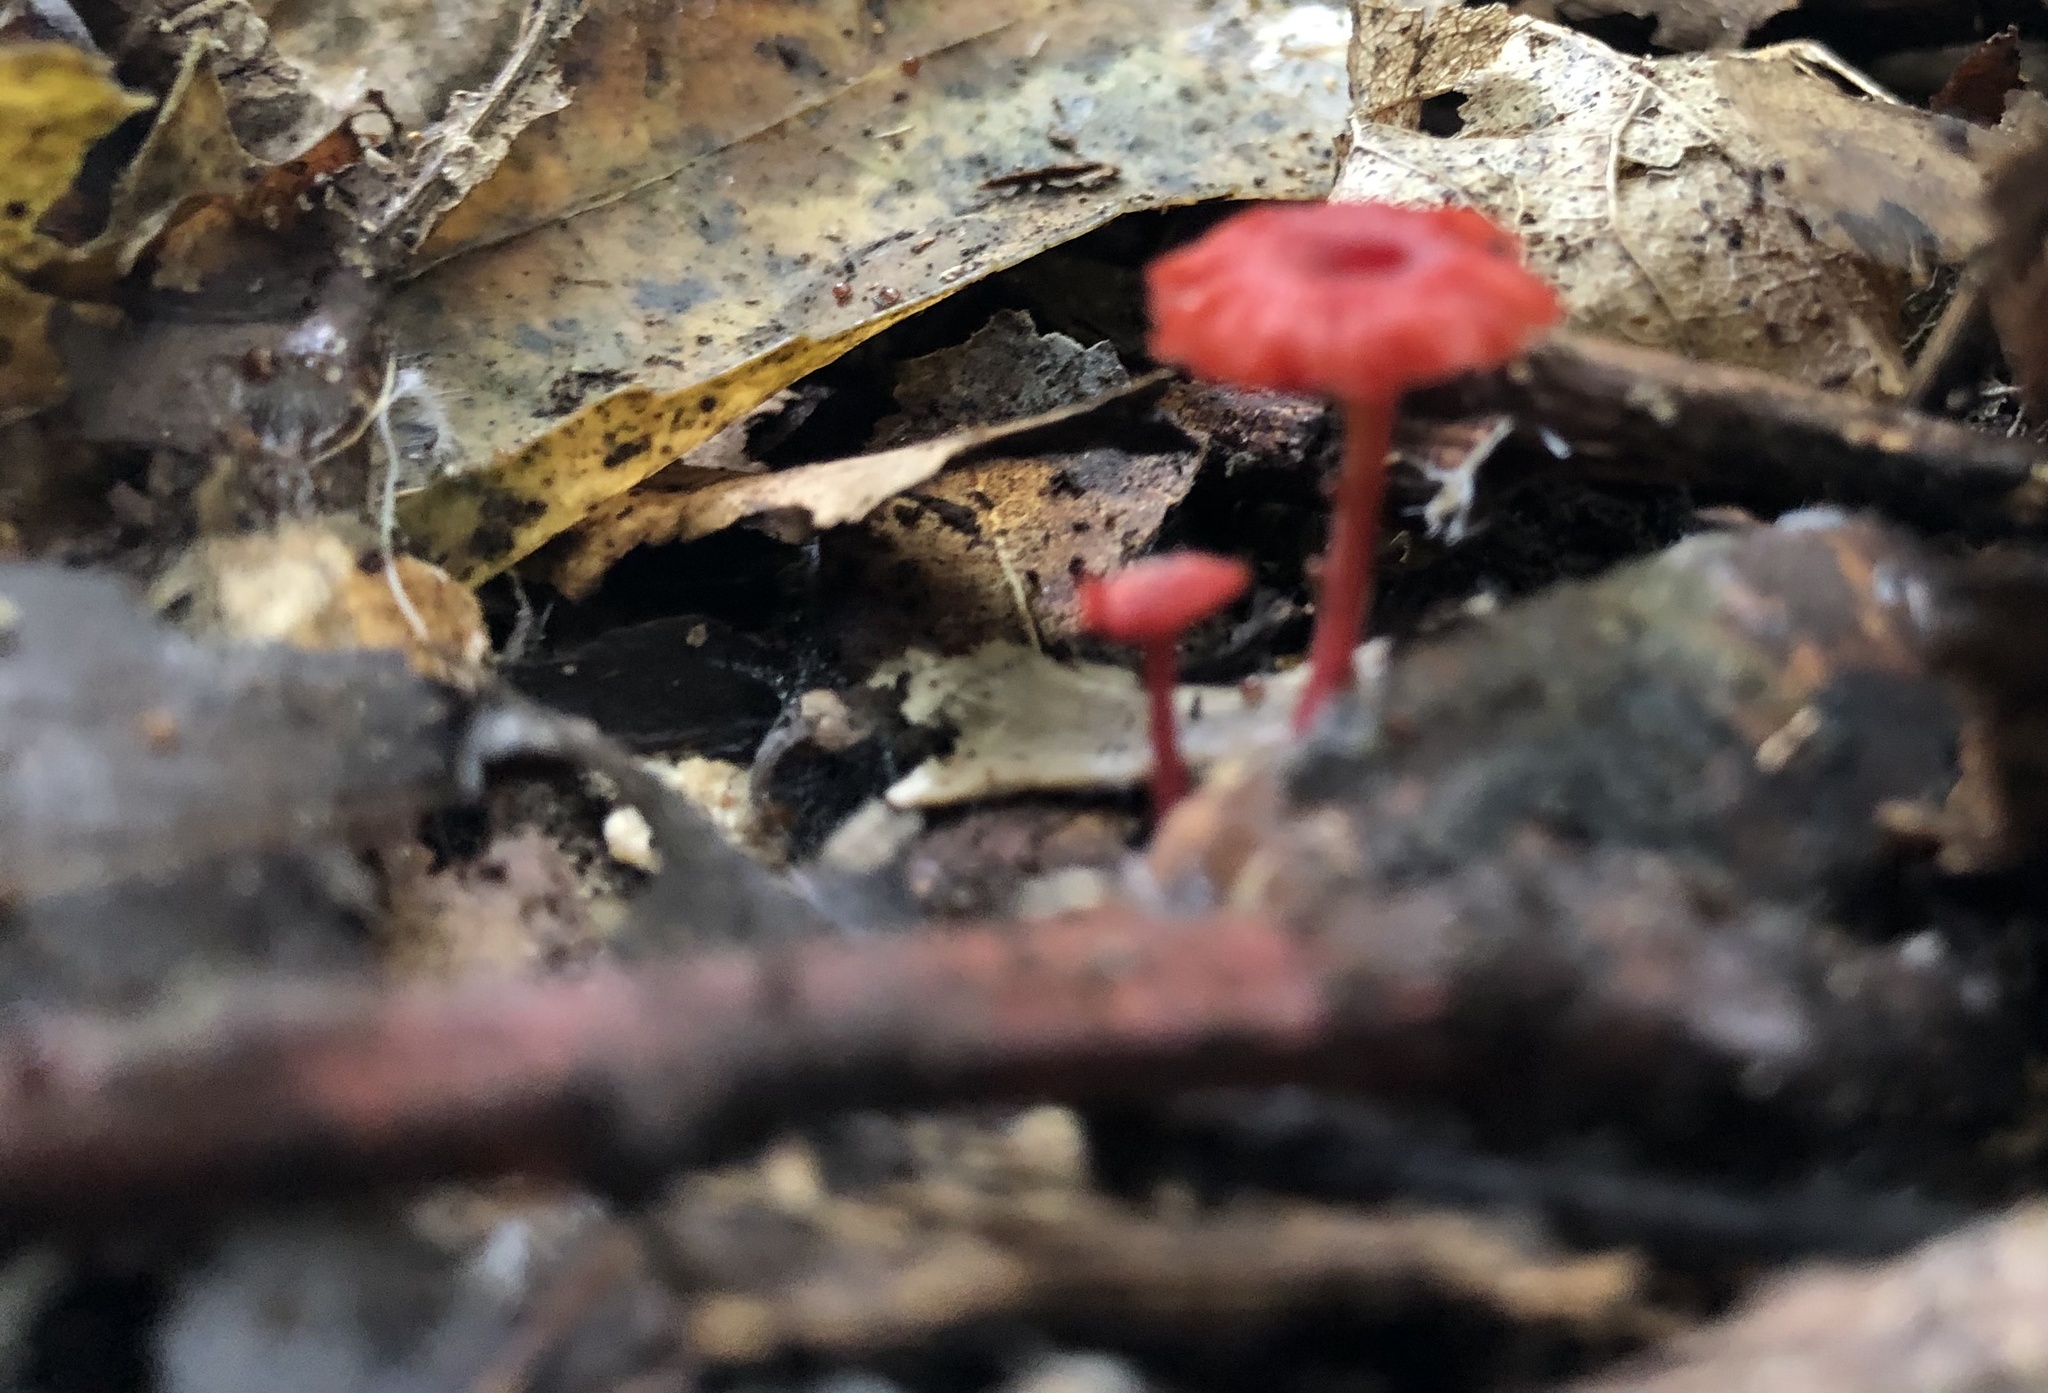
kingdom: Fungi
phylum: Basidiomycota
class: Agaricomycetes
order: Agaricales
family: Mycenaceae
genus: Cruentomycena
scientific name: Cruentomycena viscidocruenta
